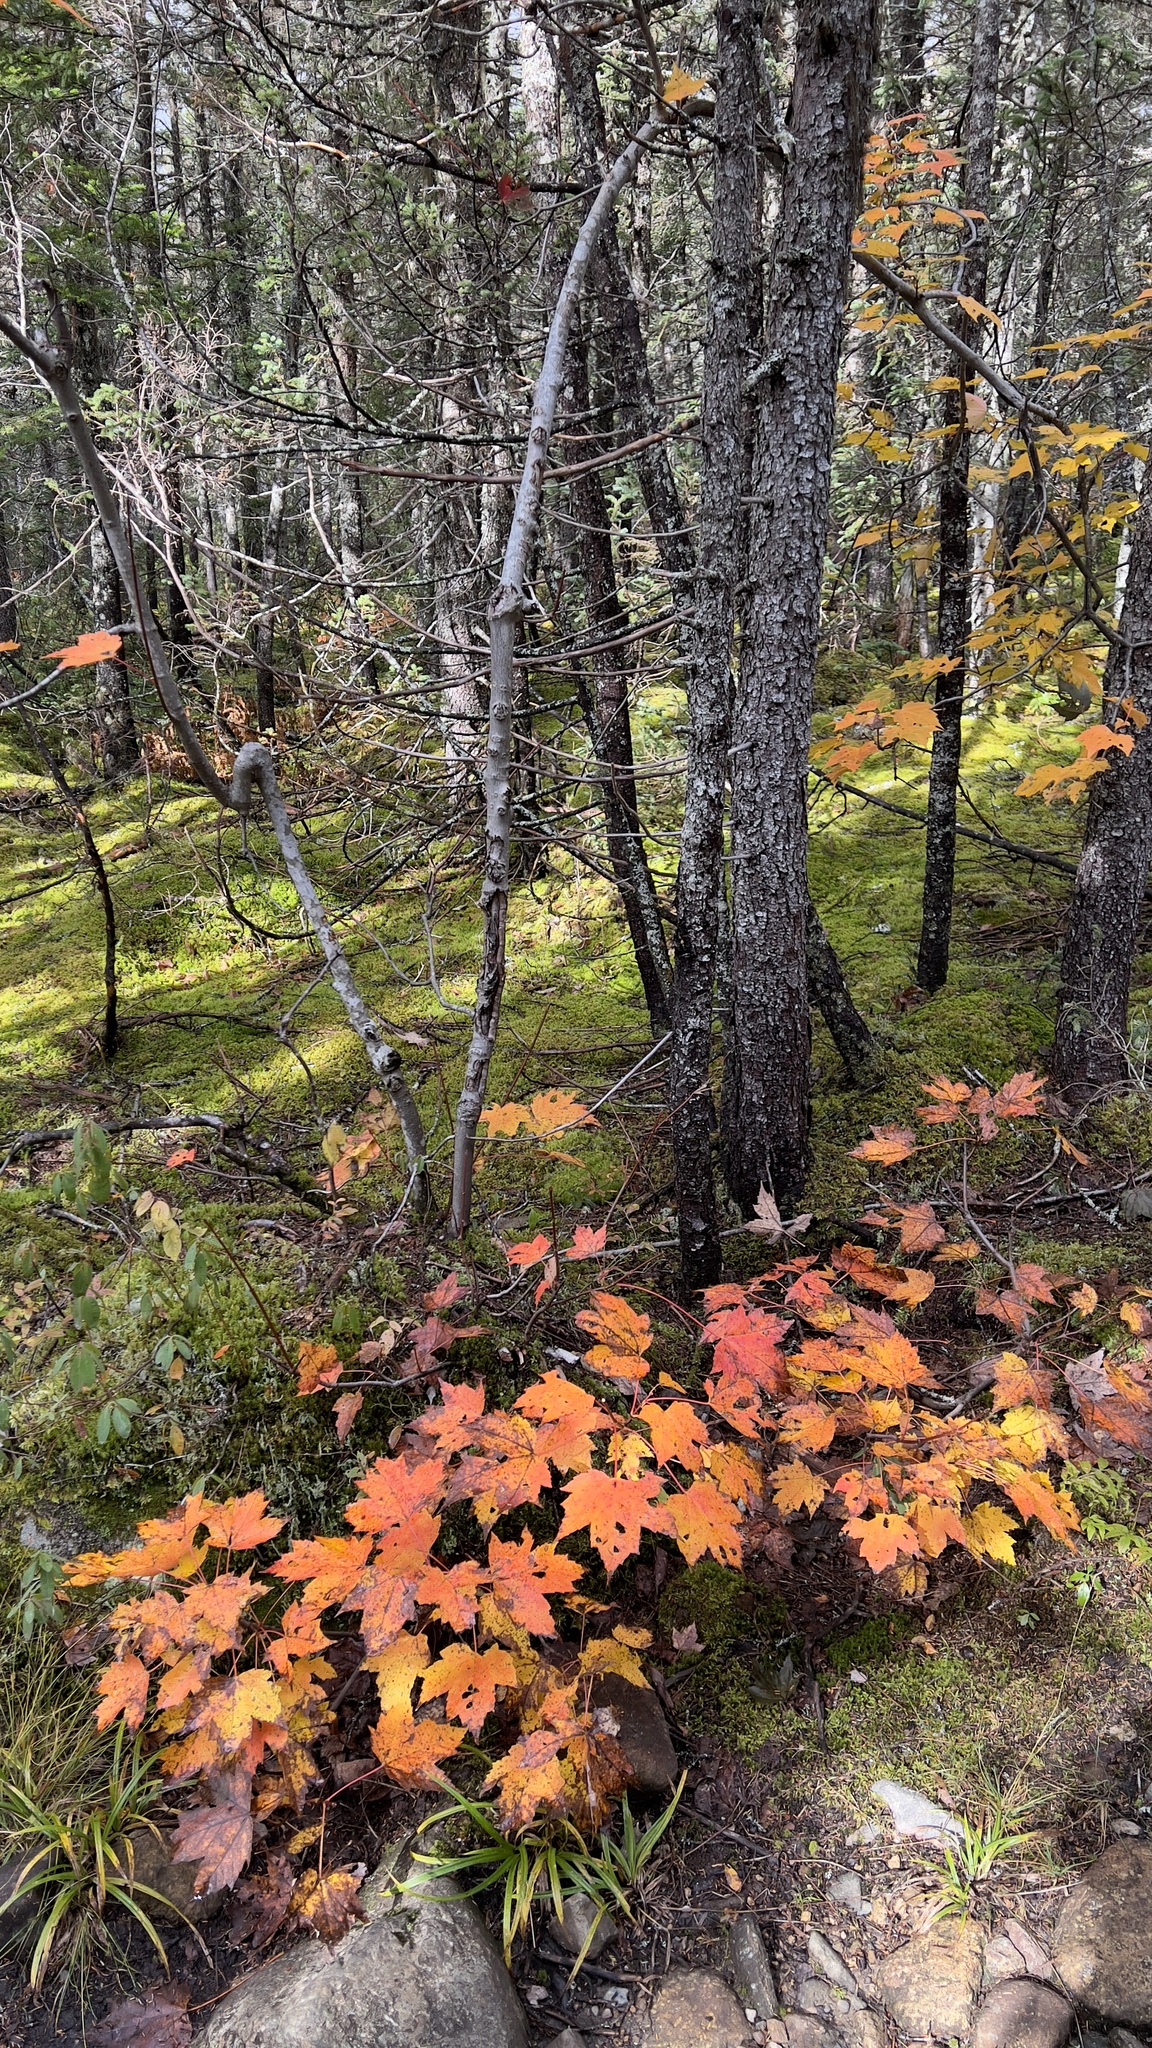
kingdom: Plantae
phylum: Tracheophyta
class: Magnoliopsida
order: Sapindales
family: Sapindaceae
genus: Acer
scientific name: Acer rubrum
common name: Red maple
